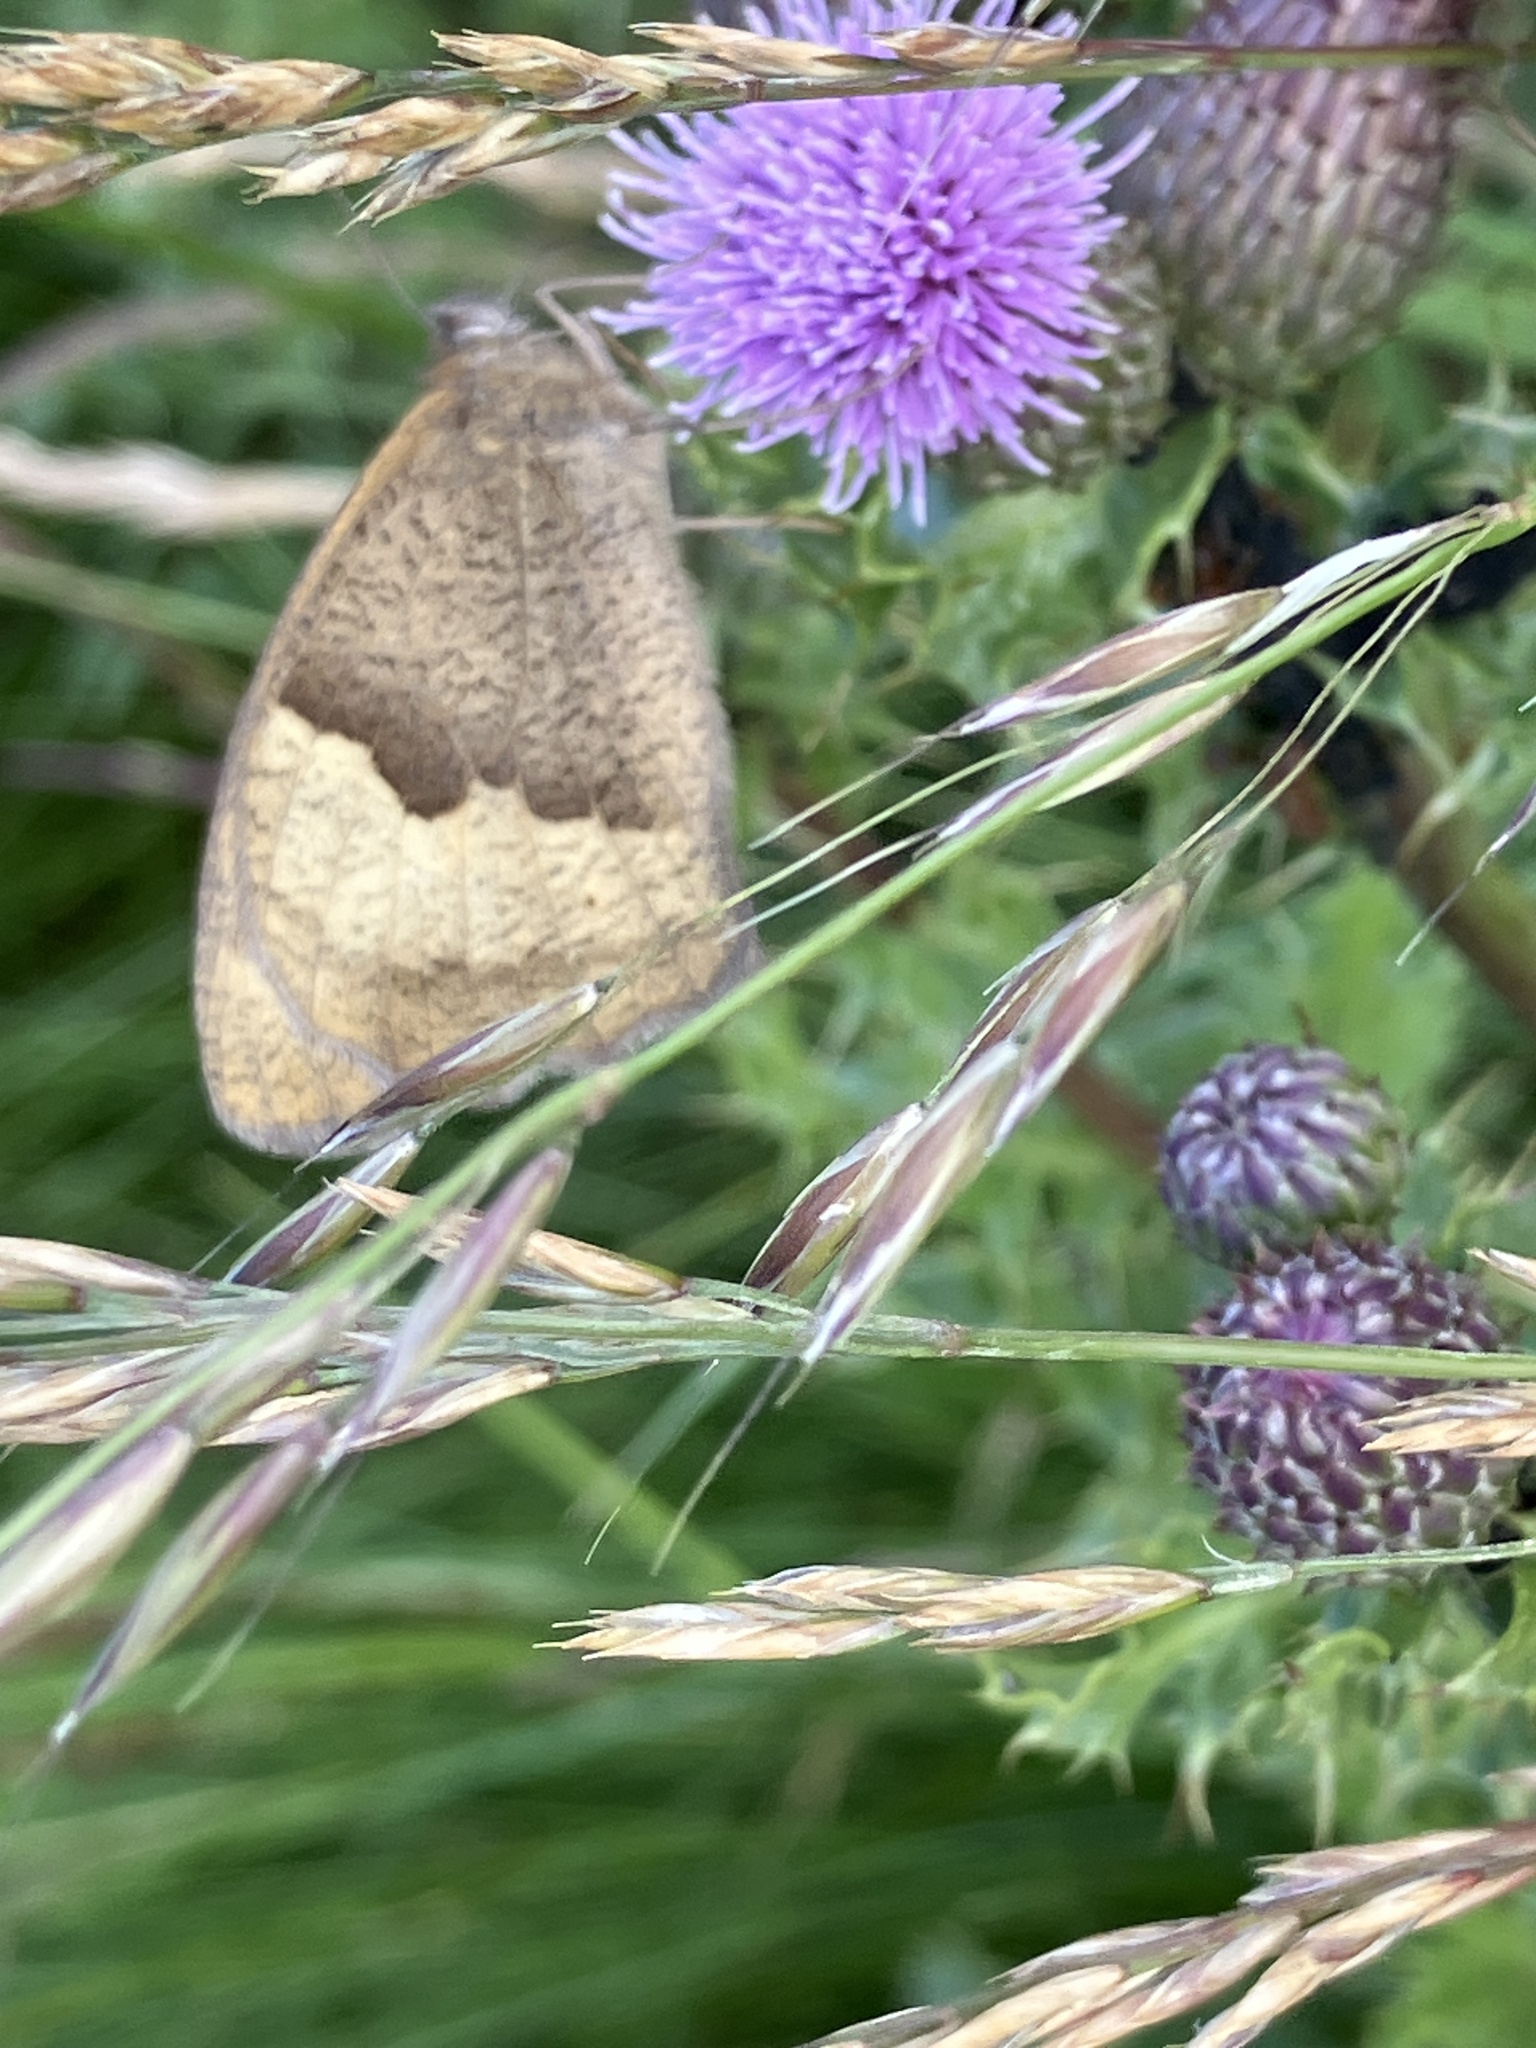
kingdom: Animalia
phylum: Arthropoda
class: Insecta
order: Lepidoptera
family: Nymphalidae
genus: Maniola
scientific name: Maniola jurtina
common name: Meadow brown
